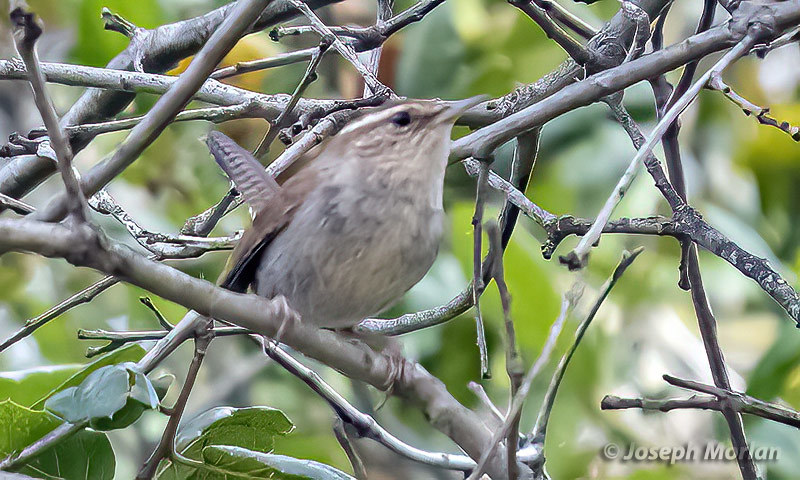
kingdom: Animalia
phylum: Chordata
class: Aves
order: Passeriformes
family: Troglodytidae
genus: Thryomanes
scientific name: Thryomanes bewickii
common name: Bewick's wren
